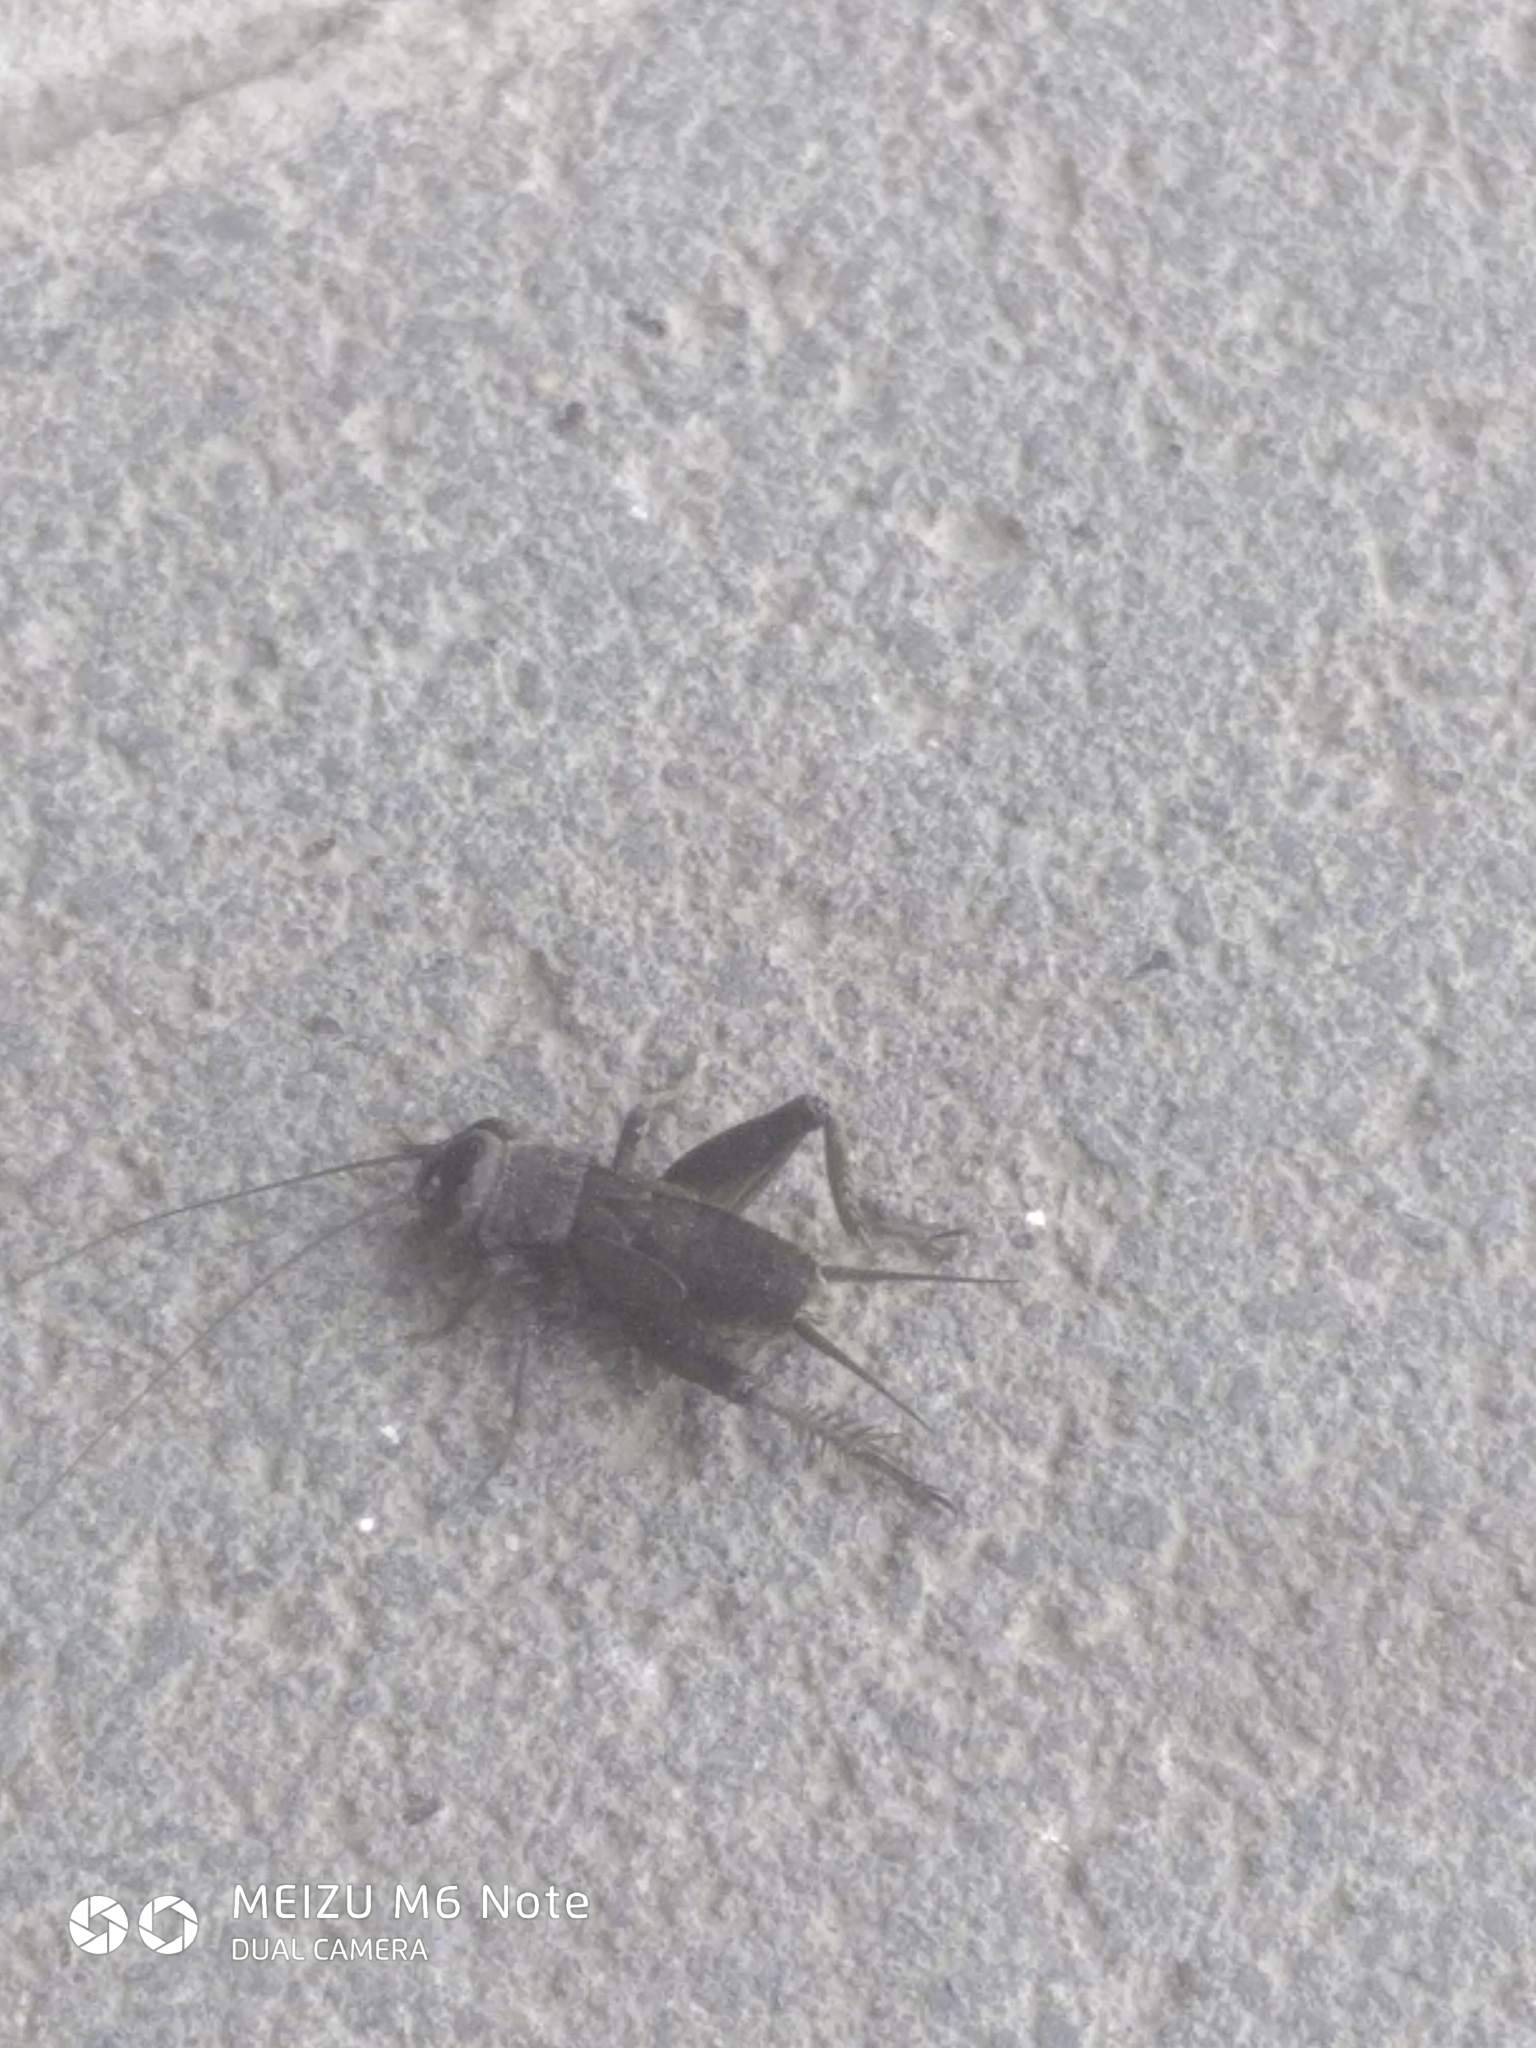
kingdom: Animalia
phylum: Arthropoda
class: Insecta
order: Orthoptera
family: Gryllidae
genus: Melanogryllus
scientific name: Melanogryllus desertus
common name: Desert cricket
